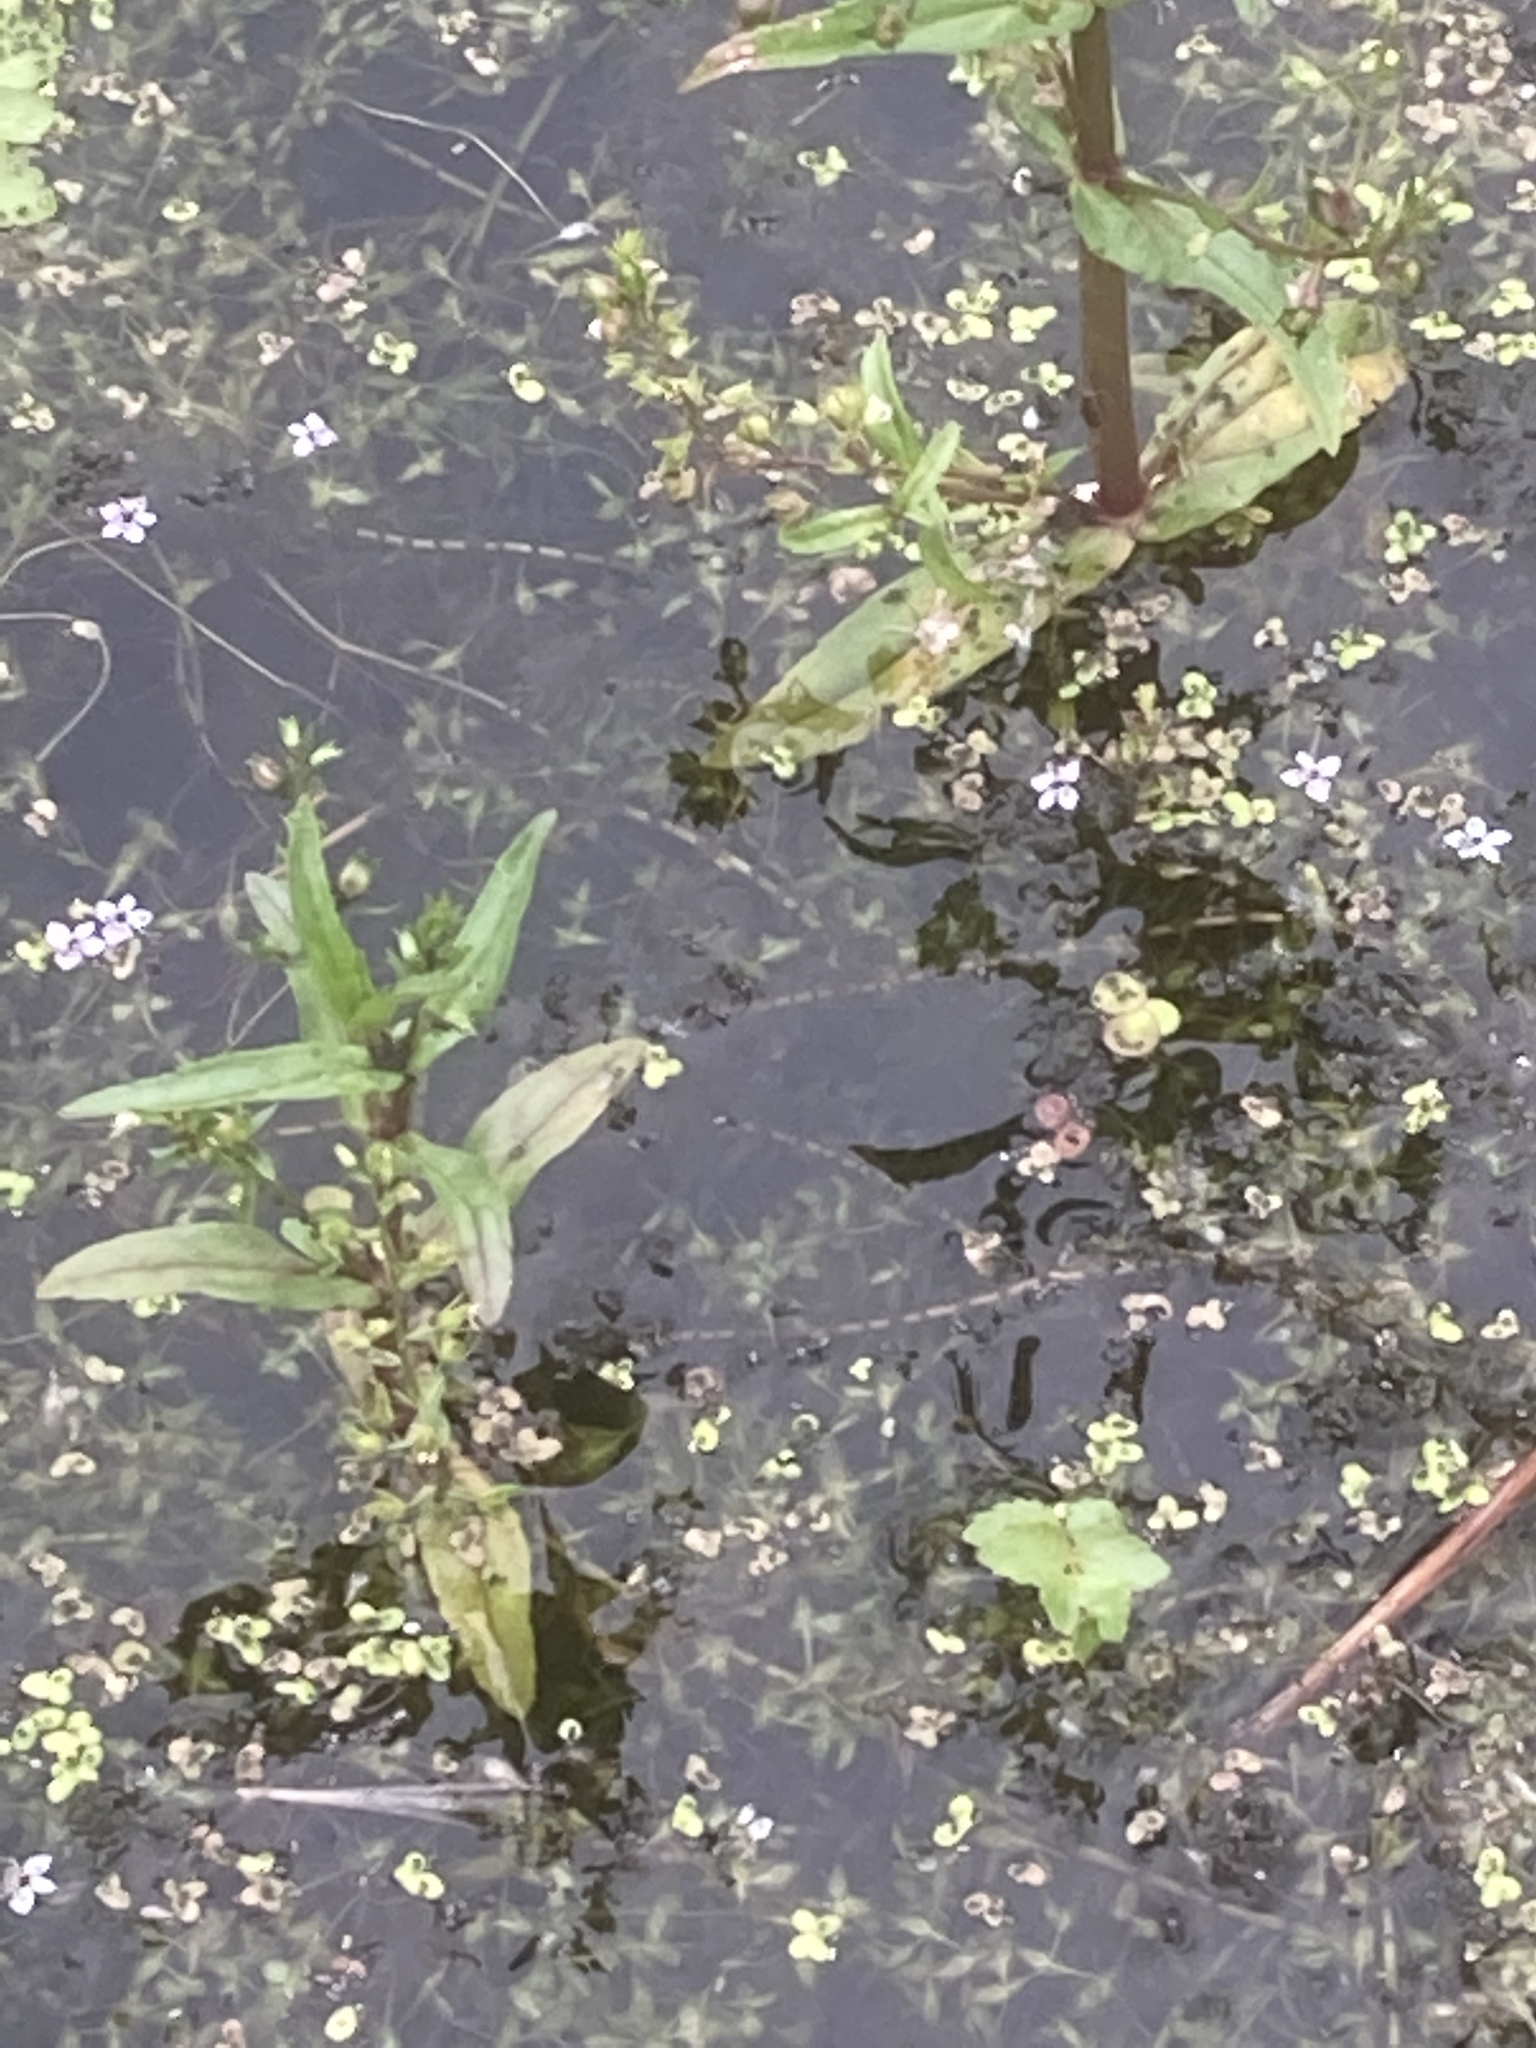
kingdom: Plantae
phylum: Tracheophyta
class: Magnoliopsida
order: Lamiales
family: Plantaginaceae
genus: Veronica
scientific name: Veronica anagallis-aquatica
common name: Water speedwell
